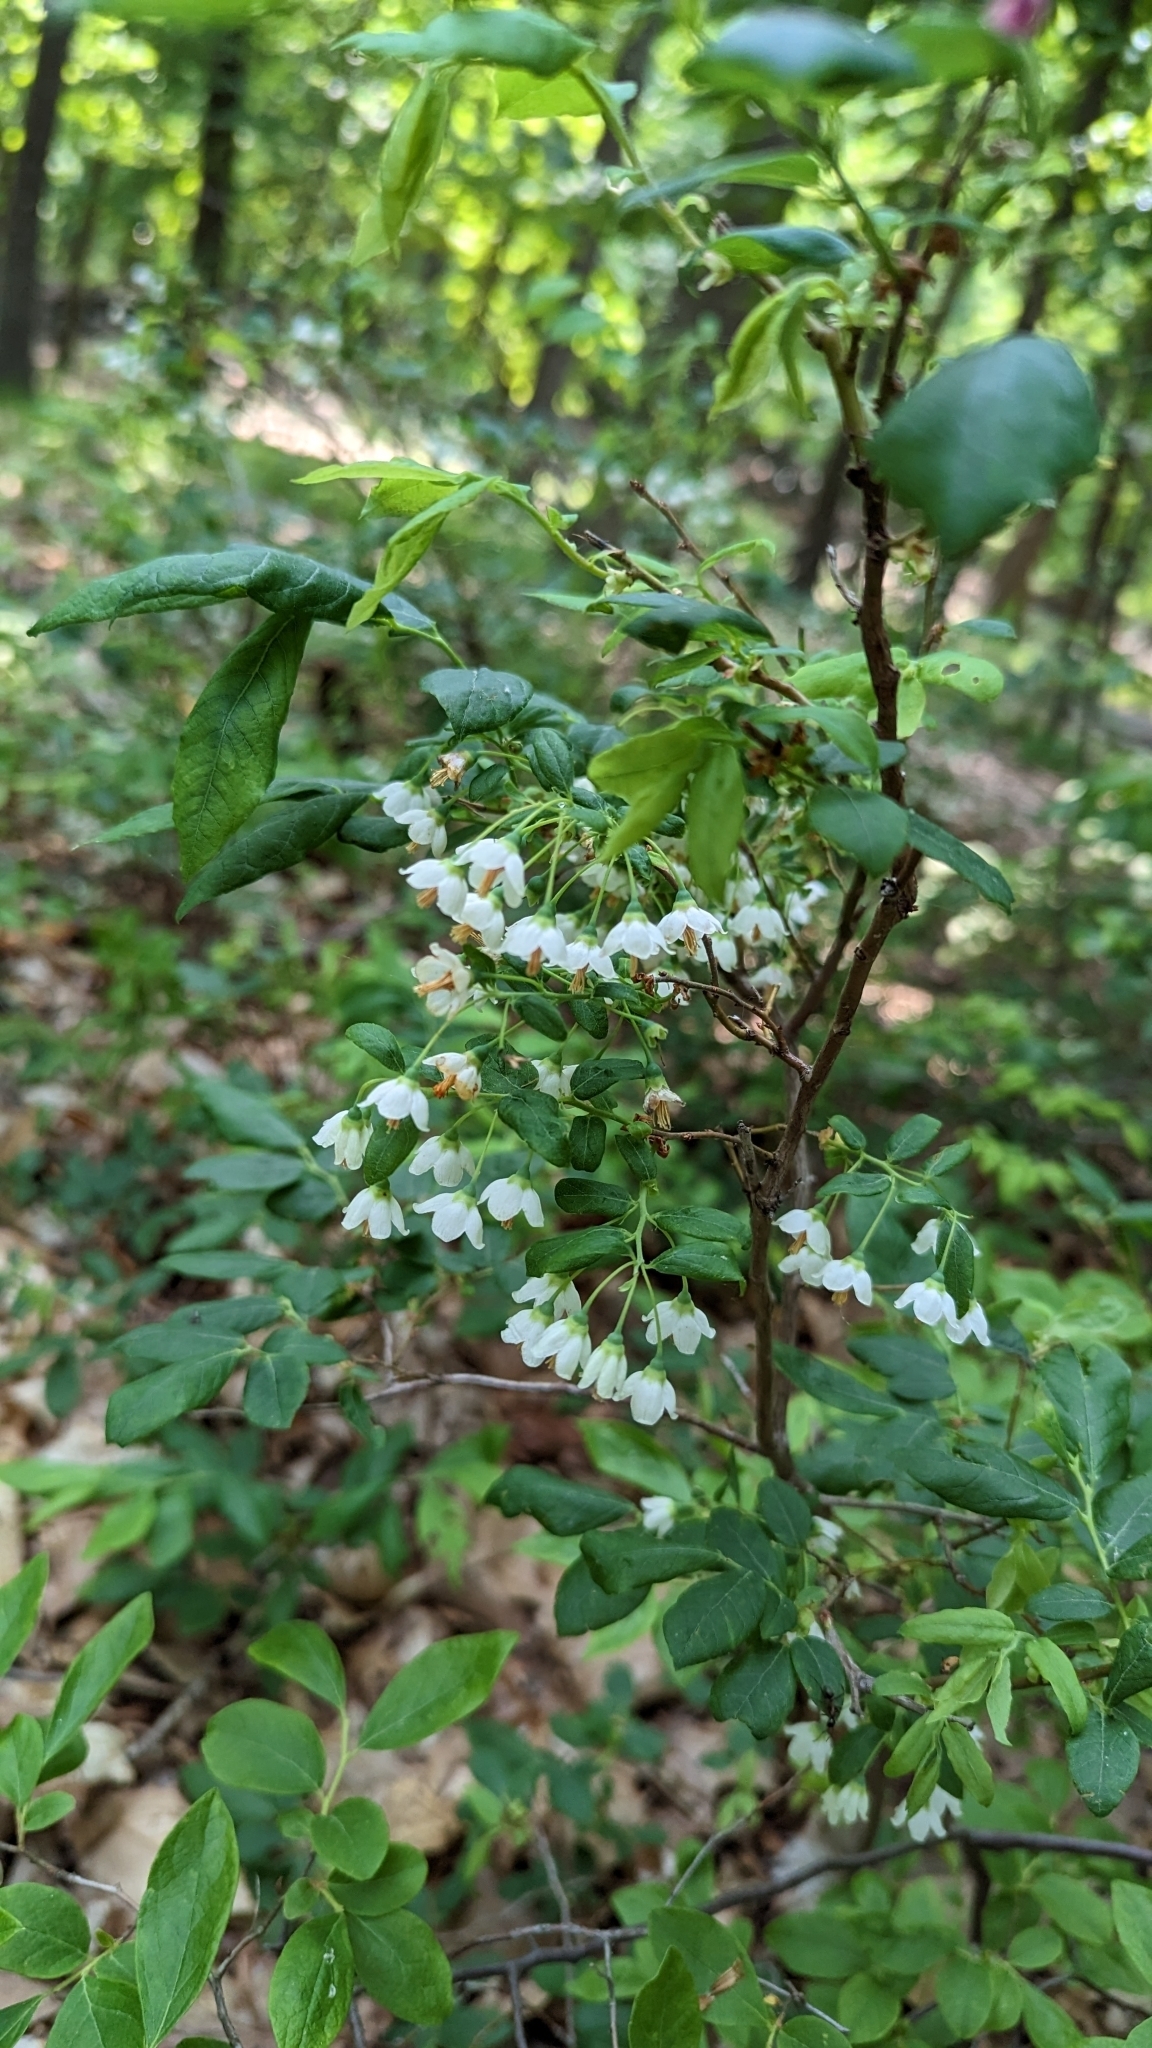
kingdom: Plantae
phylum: Tracheophyta
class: Magnoliopsida
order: Ericales
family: Ericaceae
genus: Vaccinium
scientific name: Vaccinium stamineum
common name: Deerberry
